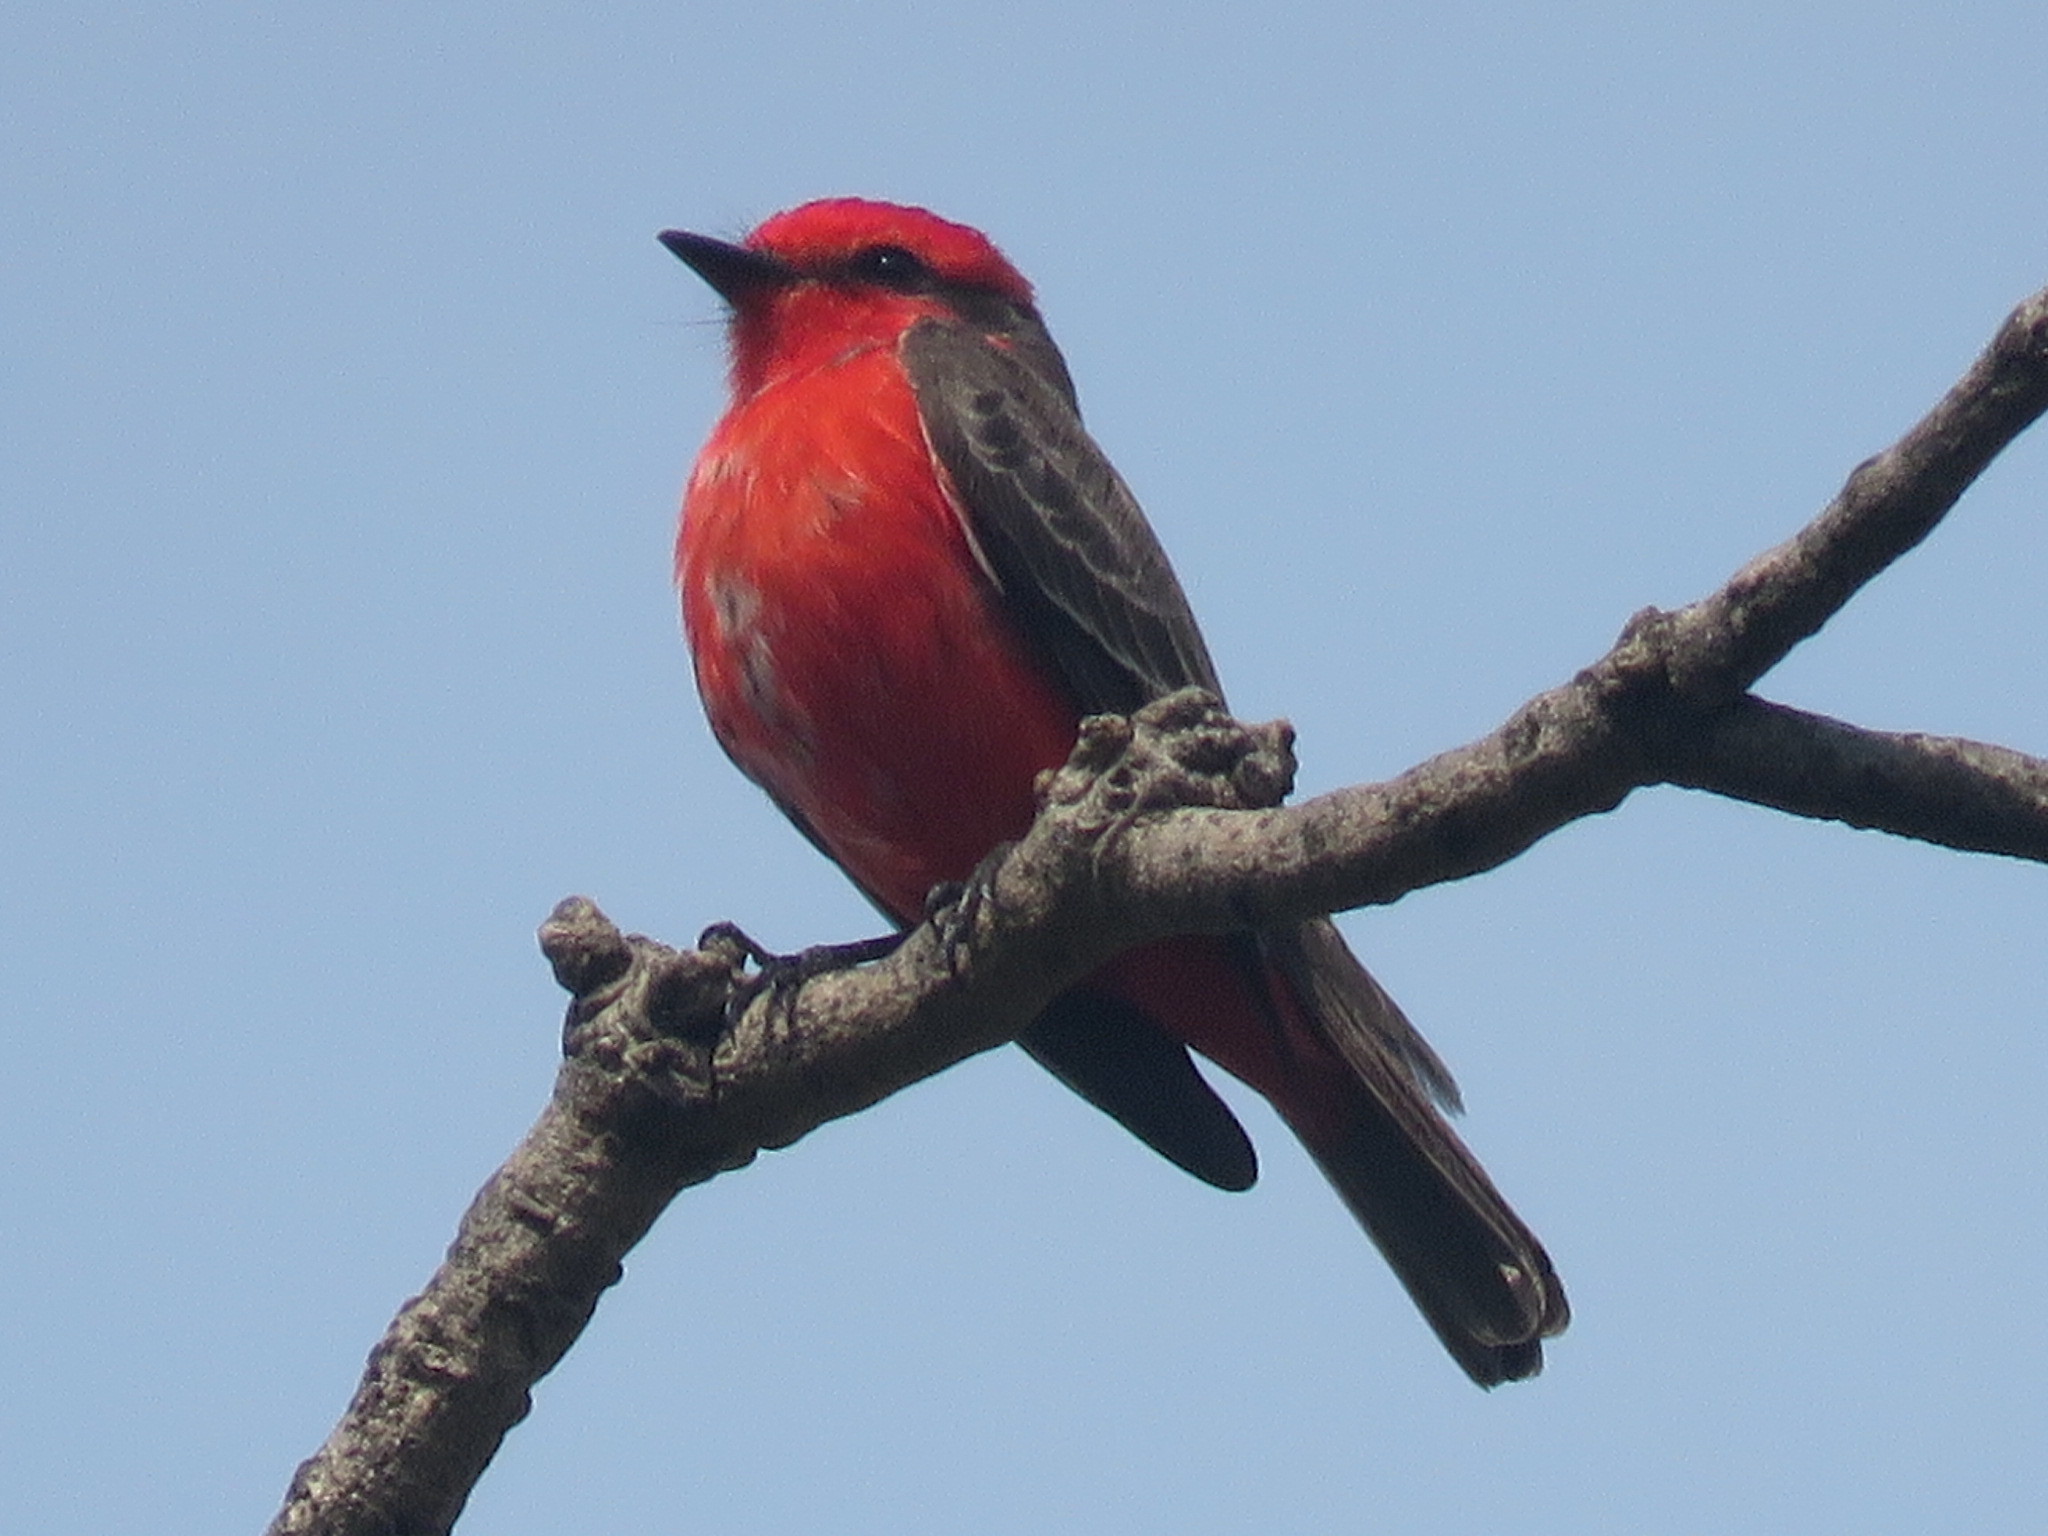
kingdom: Animalia
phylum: Chordata
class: Aves
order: Passeriformes
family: Tyrannidae
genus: Pyrocephalus
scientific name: Pyrocephalus rubinus
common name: Vermilion flycatcher
